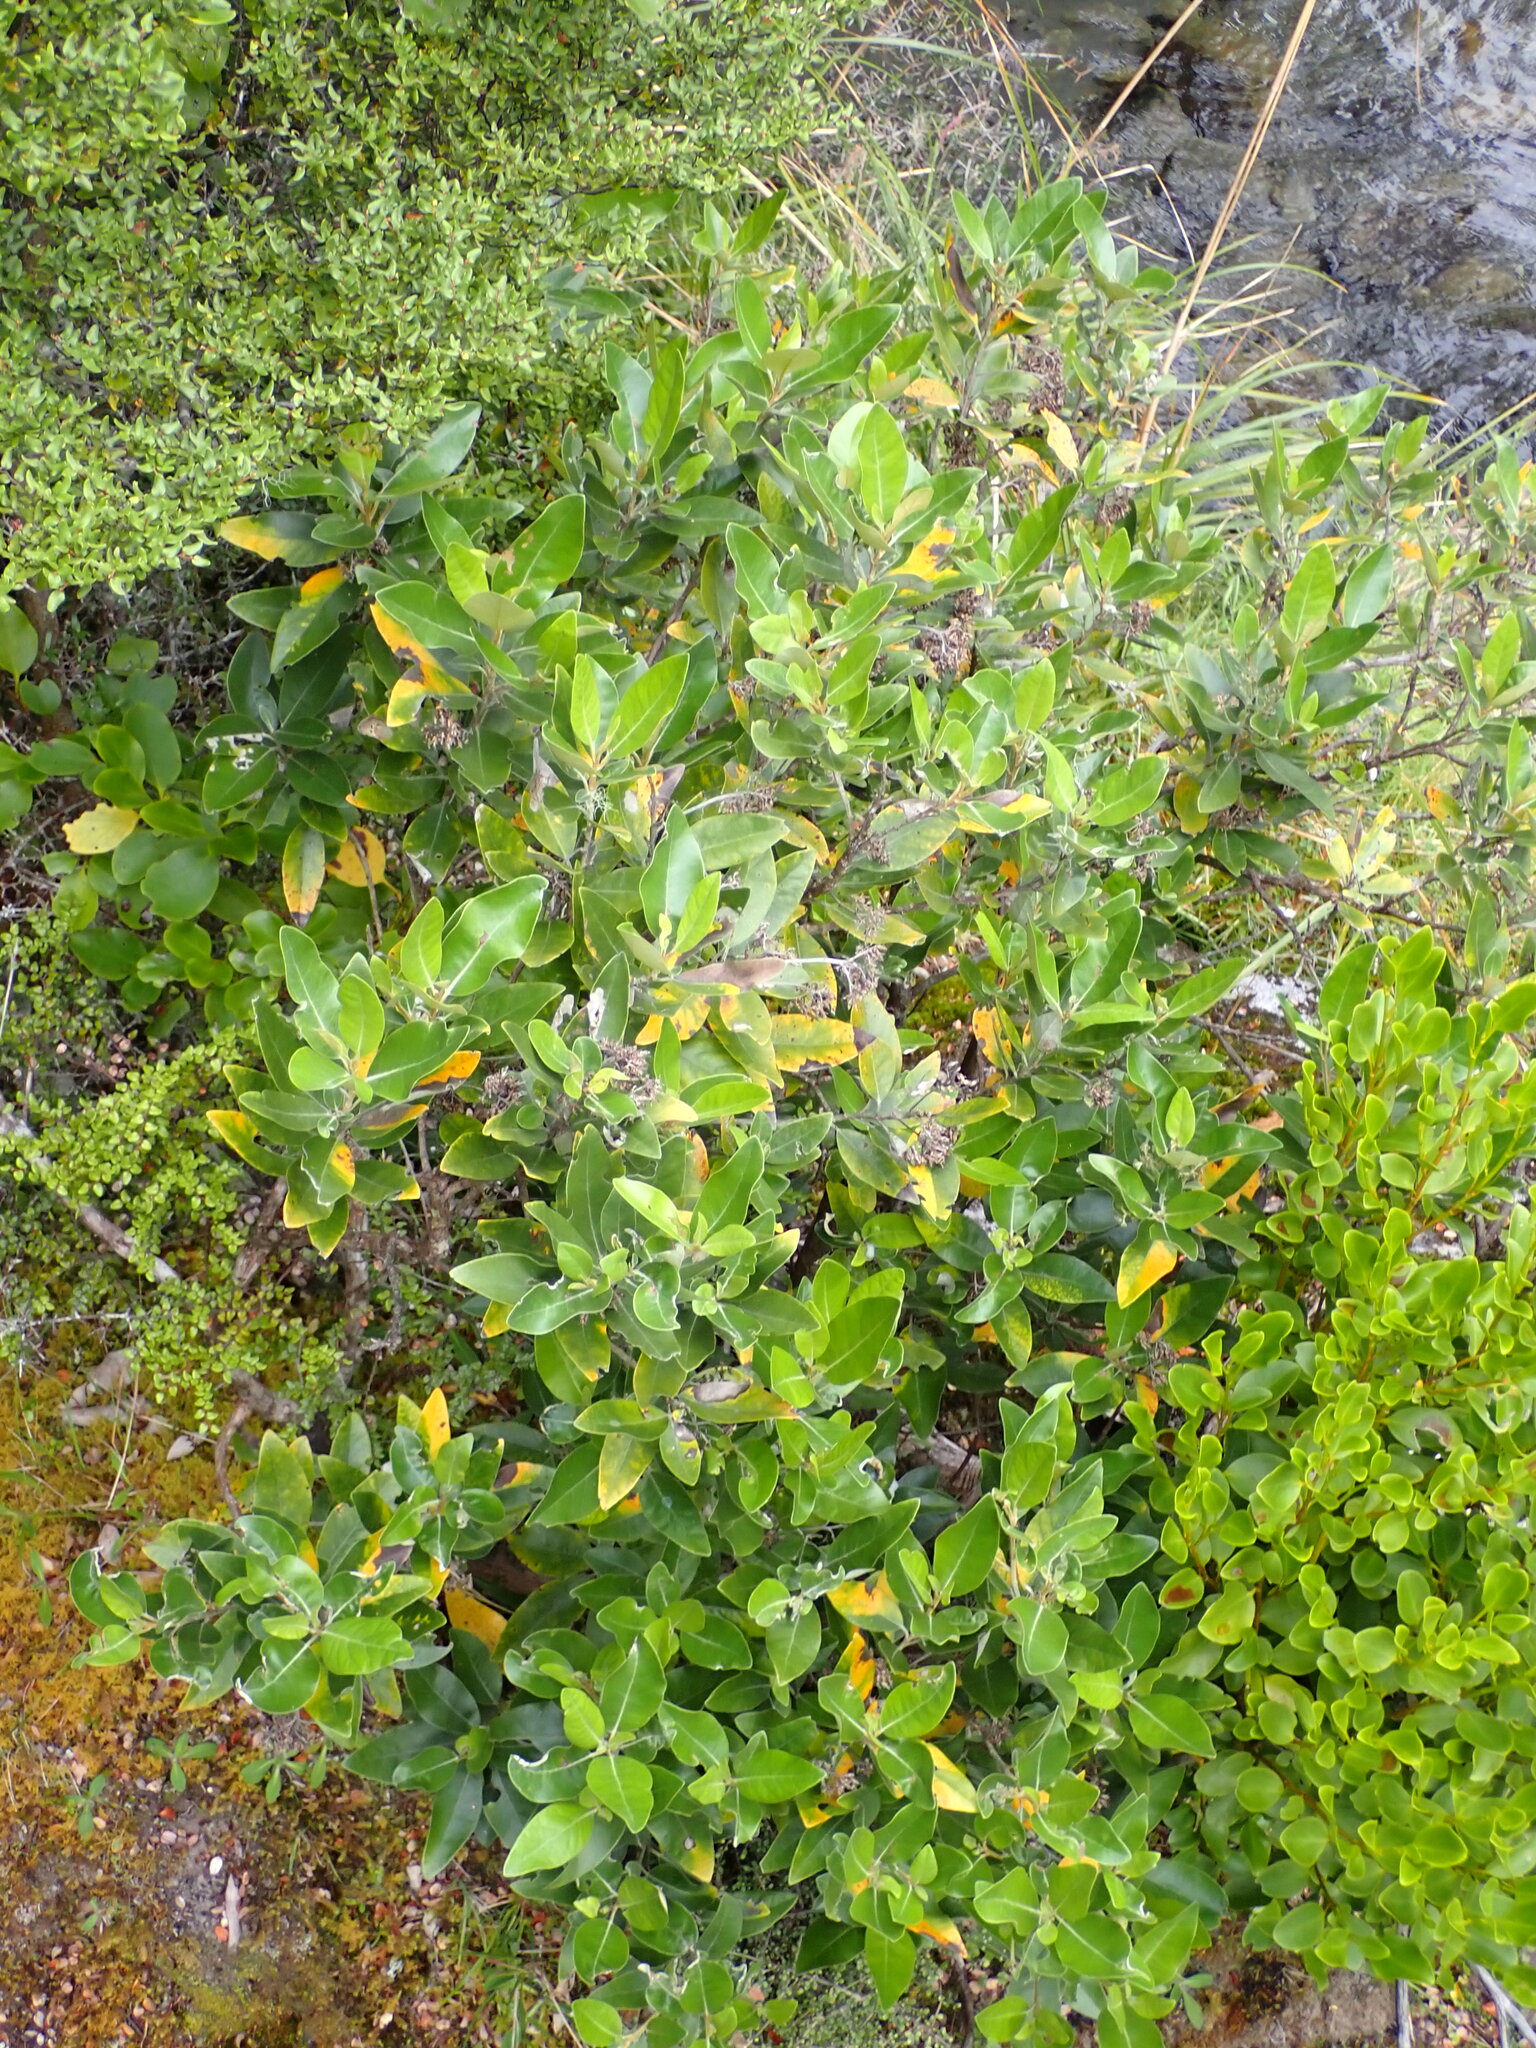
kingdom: Plantae
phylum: Tracheophyta
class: Magnoliopsida
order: Asterales
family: Asteraceae
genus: Olearia
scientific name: Olearia avicenniifolia
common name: Mangrove-leaf daisybush
